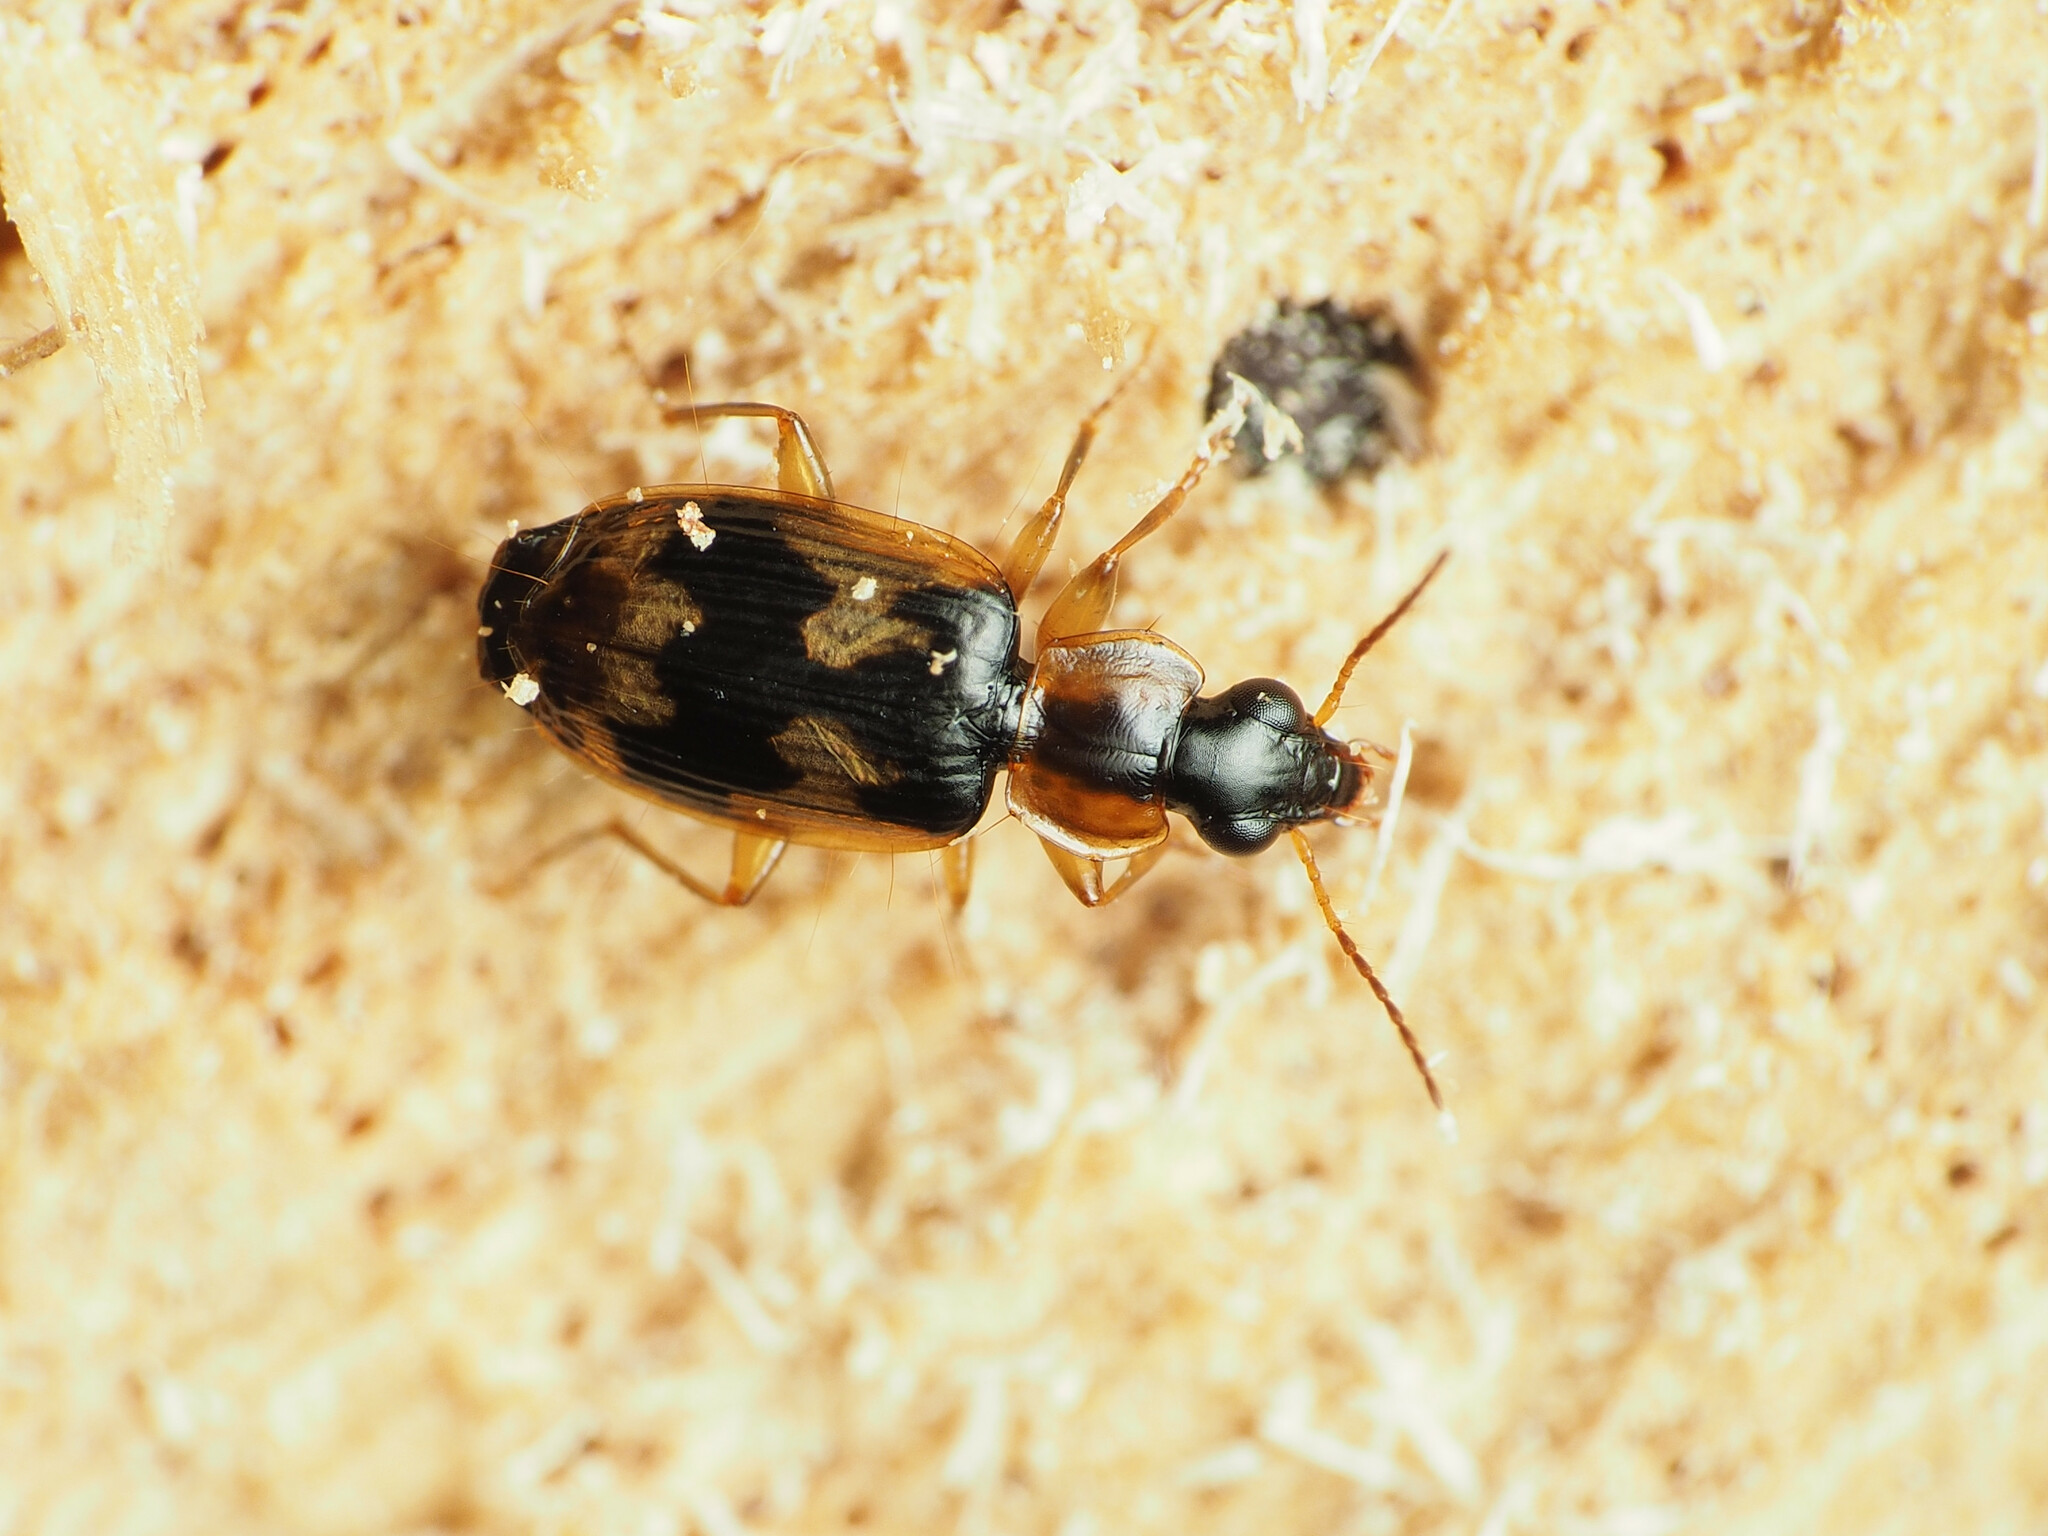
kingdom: Animalia
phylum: Arthropoda
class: Insecta
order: Coleoptera
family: Carabidae
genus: Phloeoxena
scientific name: Phloeoxena signata
